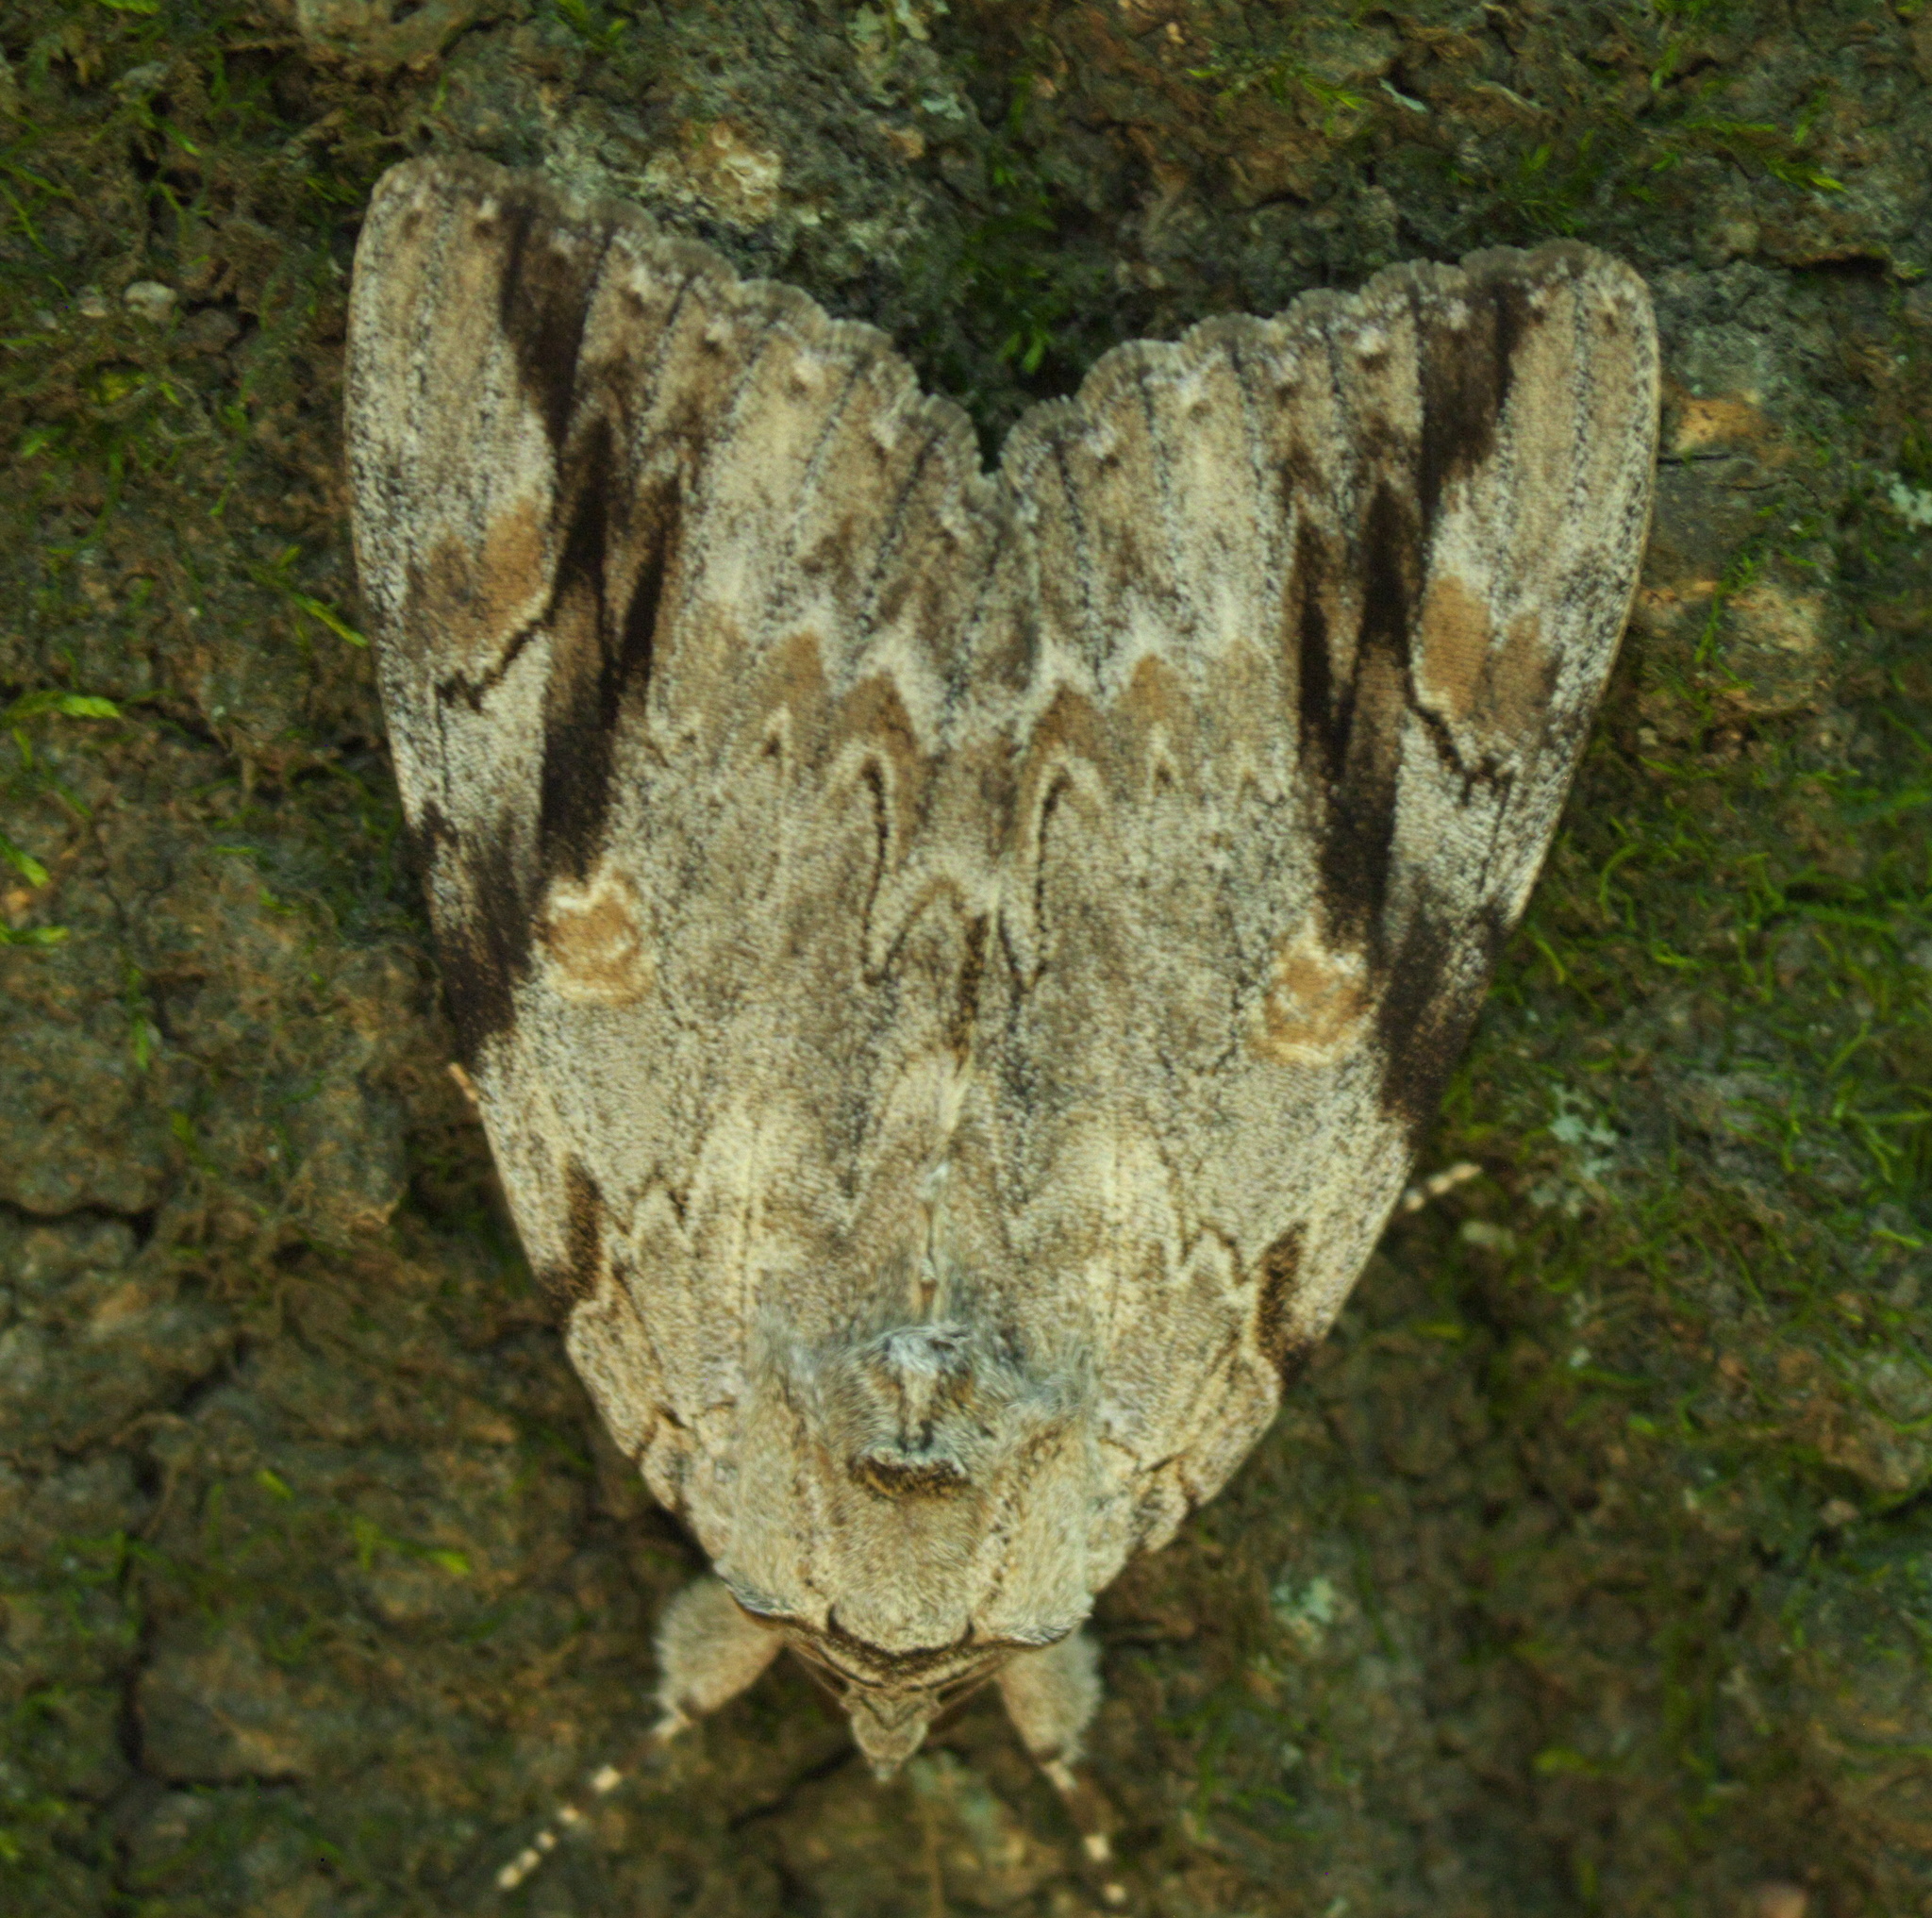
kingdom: Animalia
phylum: Arthropoda
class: Insecta
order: Lepidoptera
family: Erebidae
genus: Catocala
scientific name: Catocala maestosa
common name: Sad underwing
